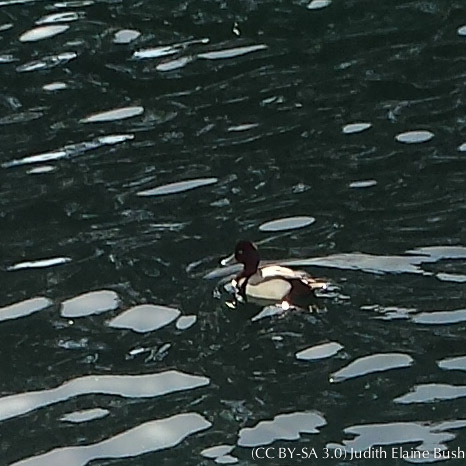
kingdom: Animalia
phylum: Chordata
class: Aves
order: Anseriformes
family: Anatidae
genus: Aythya
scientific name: Aythya affinis
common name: Lesser scaup
